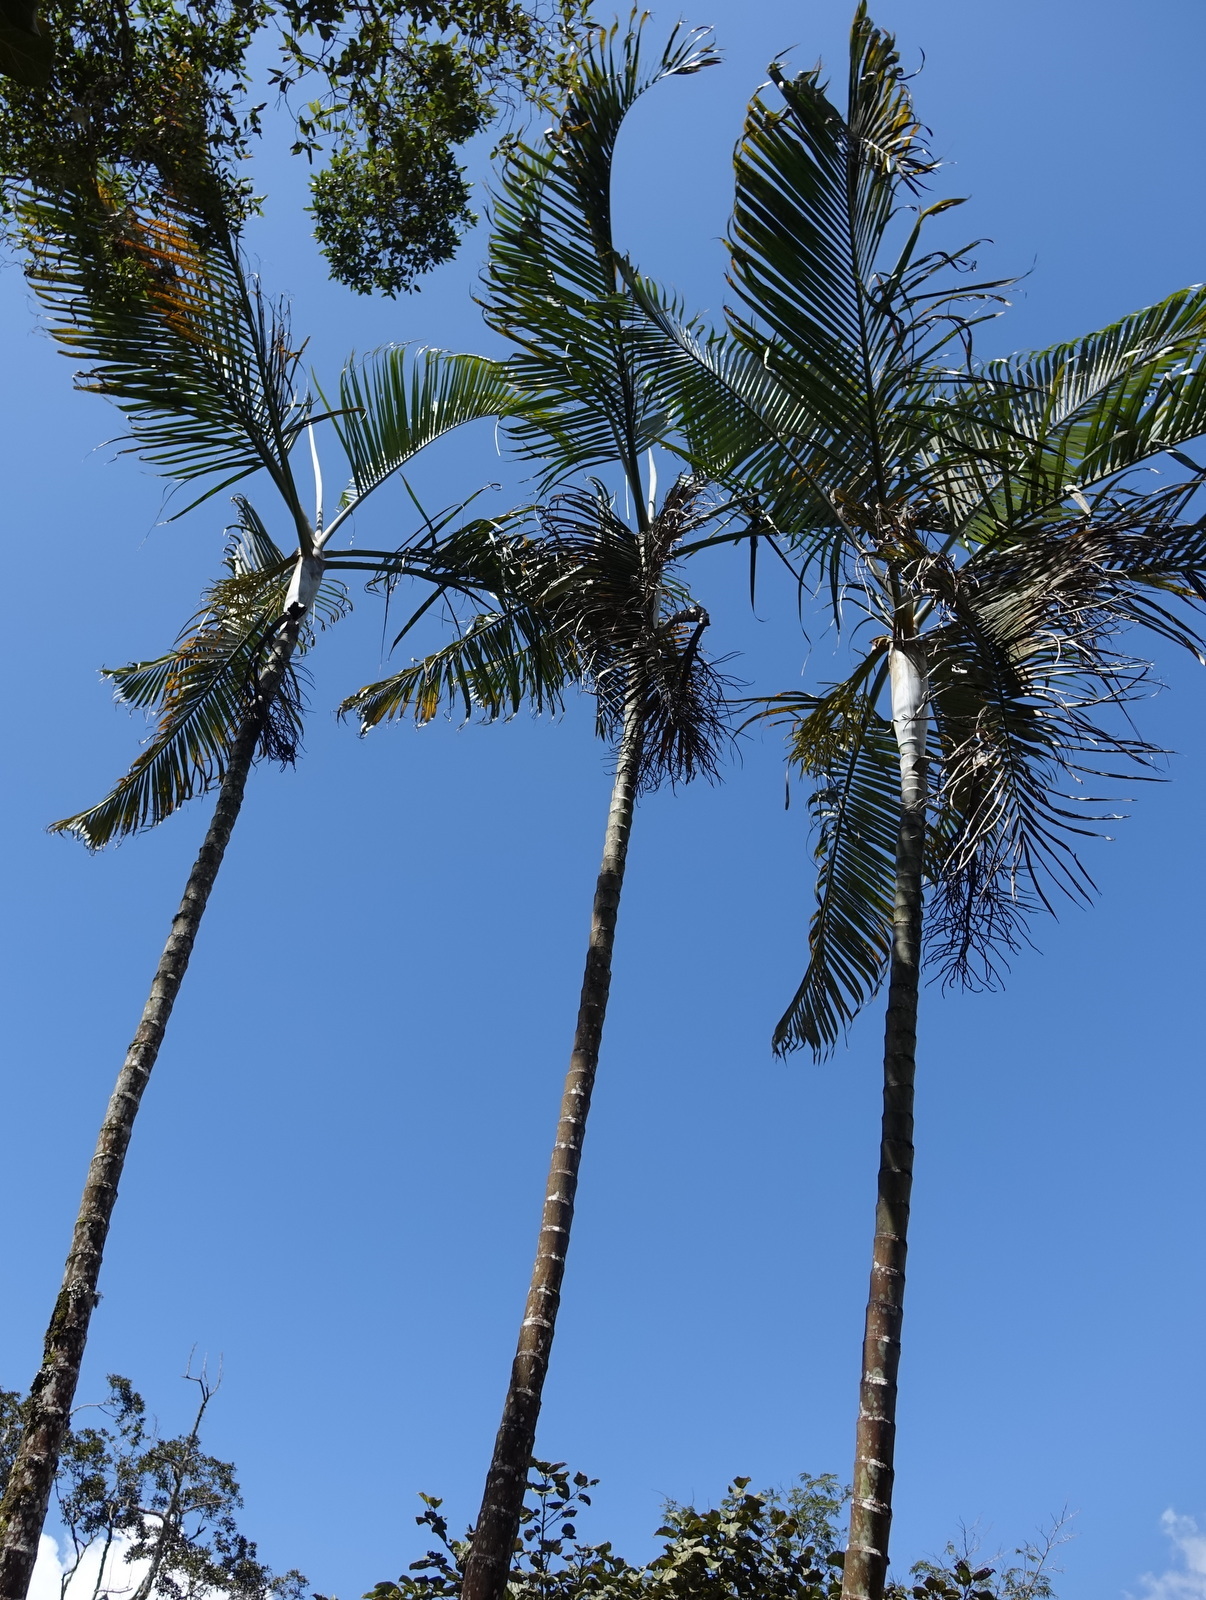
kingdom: Plantae
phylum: Tracheophyta
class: Liliopsida
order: Arecales
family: Arecaceae
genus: Dypsis
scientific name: Dypsis baronii
